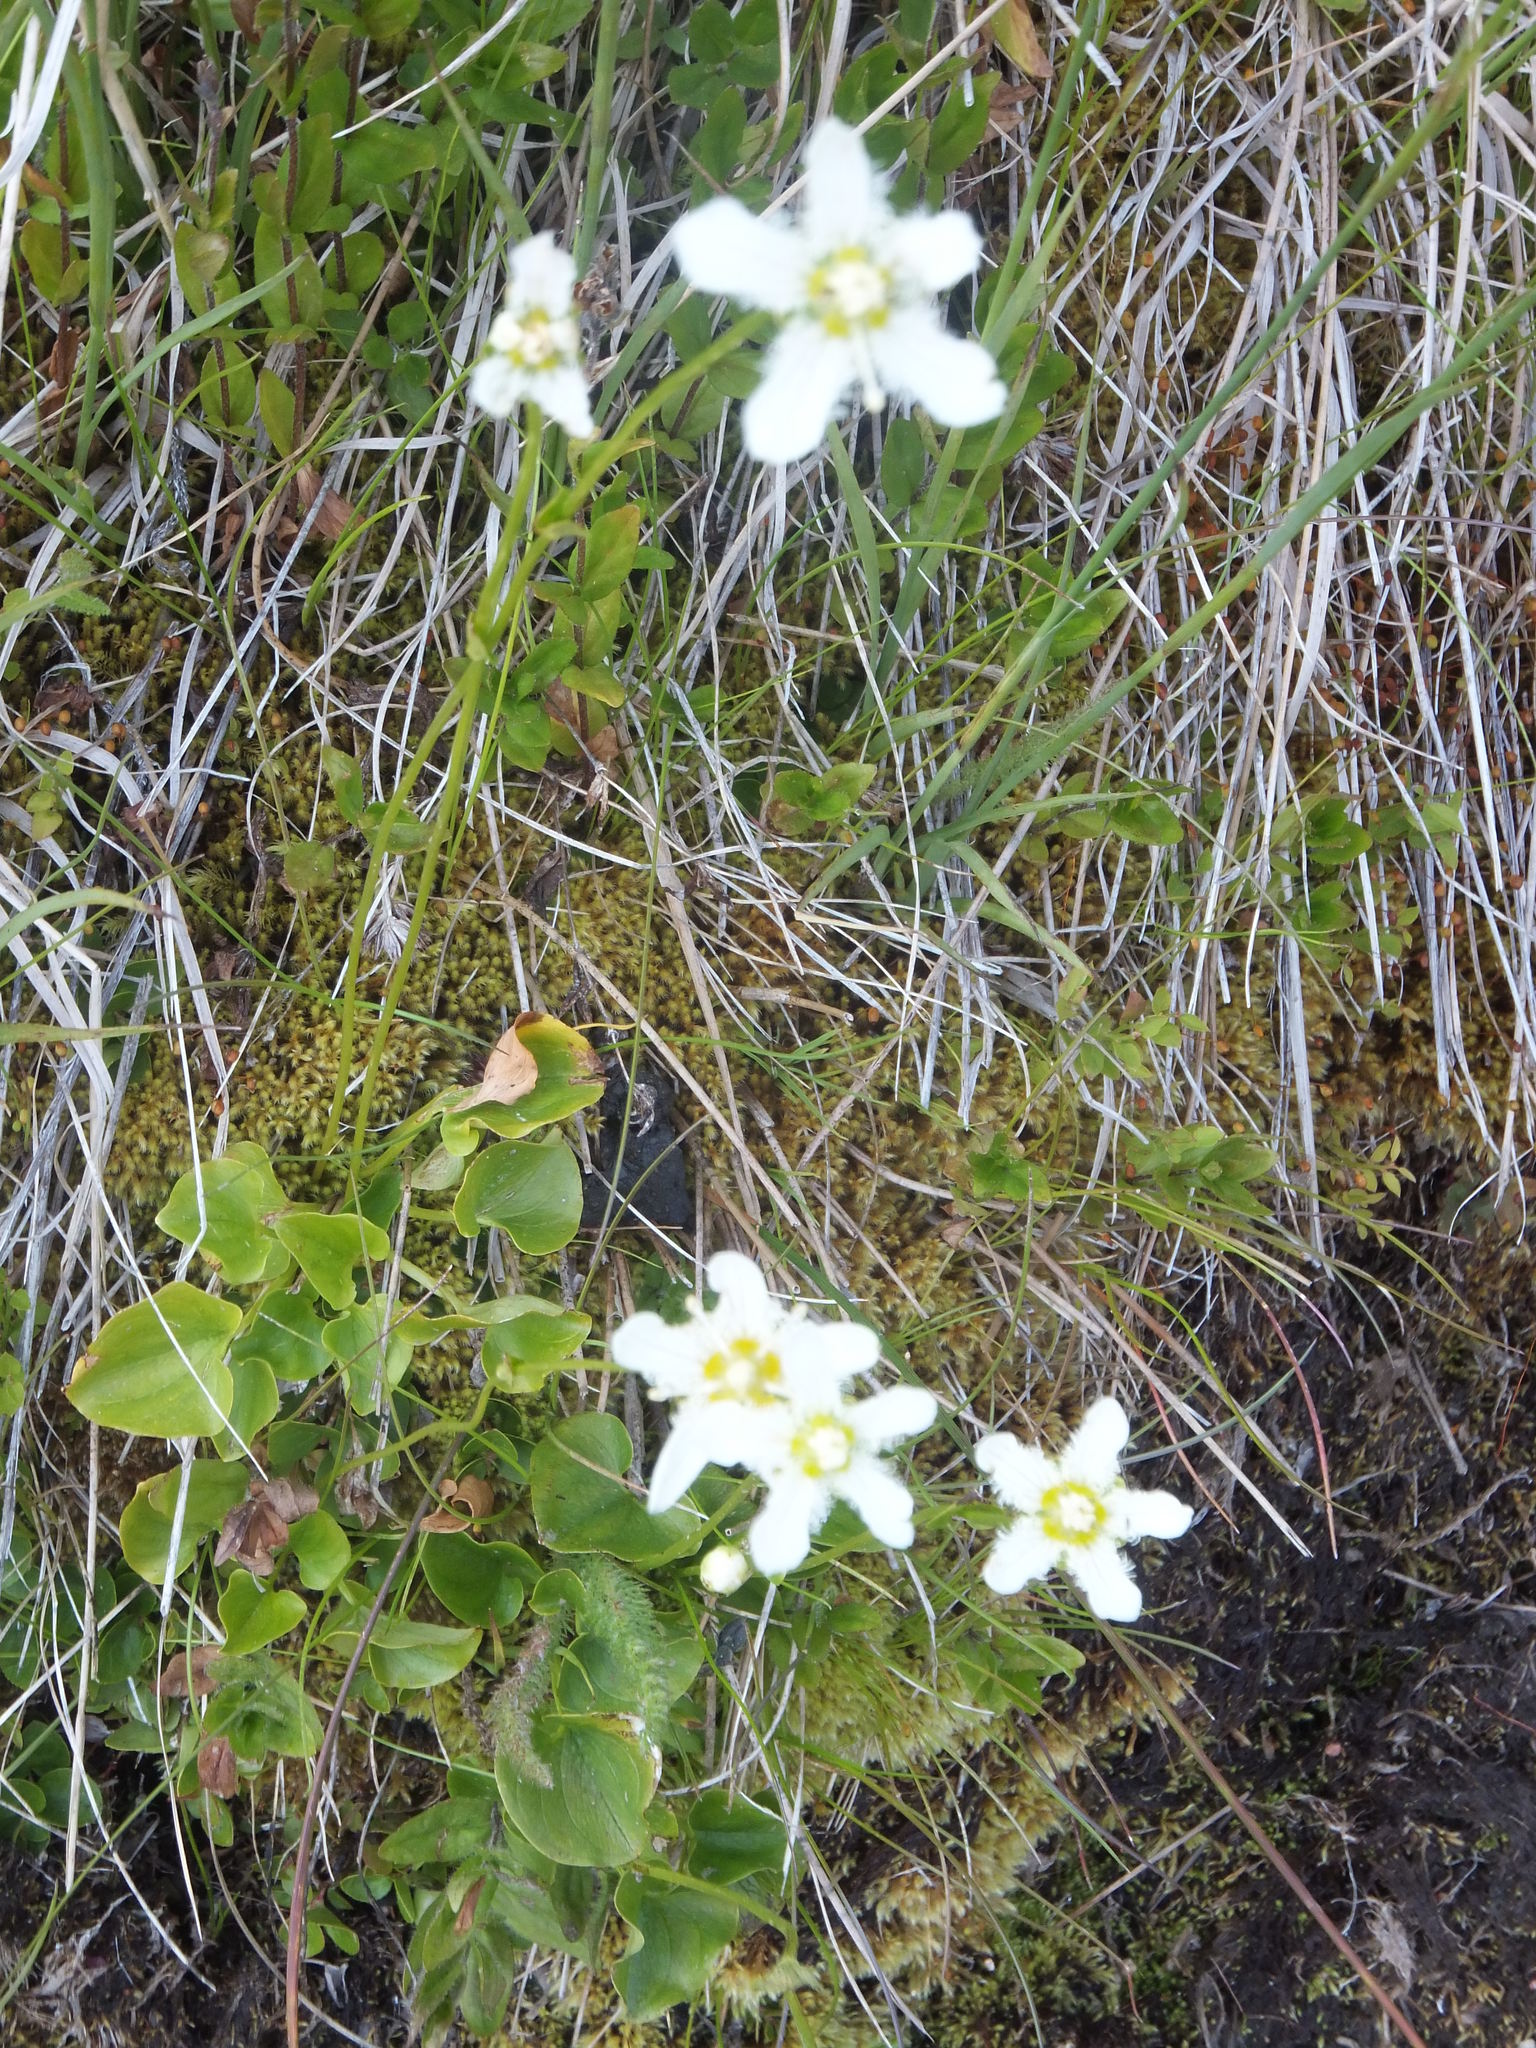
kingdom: Plantae
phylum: Tracheophyta
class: Magnoliopsida
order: Celastrales
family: Parnassiaceae
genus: Parnassia
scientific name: Parnassia fimbriata
